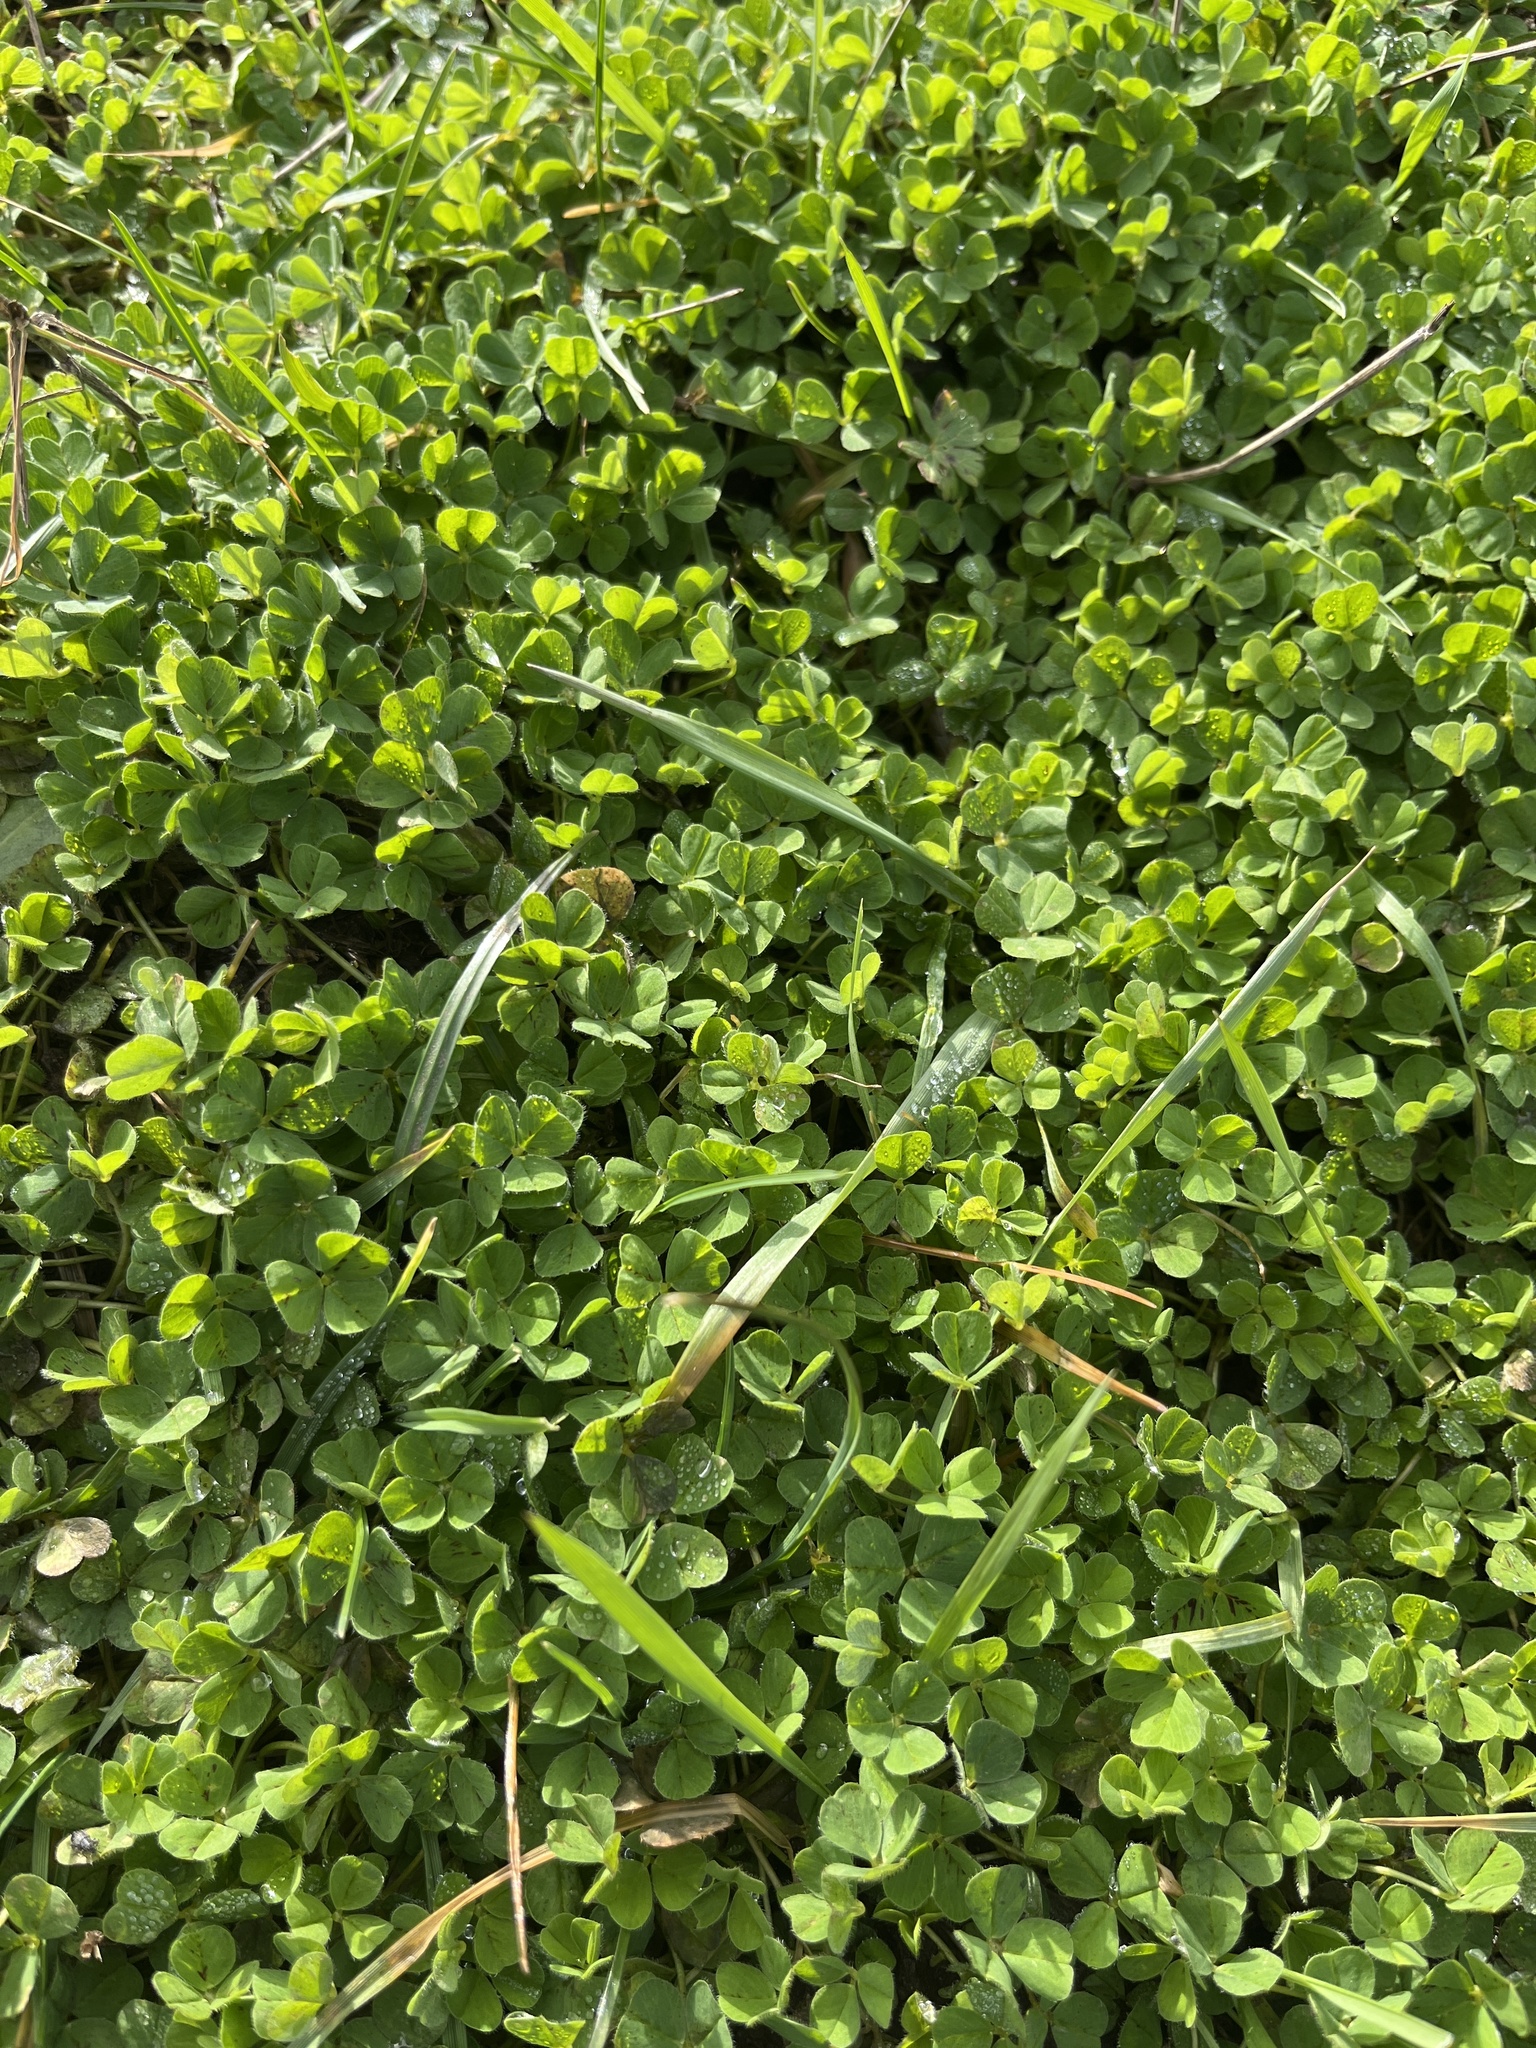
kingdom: Plantae
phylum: Tracheophyta
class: Magnoliopsida
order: Fabales
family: Fabaceae
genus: Trifolium
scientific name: Trifolium subterraneum
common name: Subterranean clover
